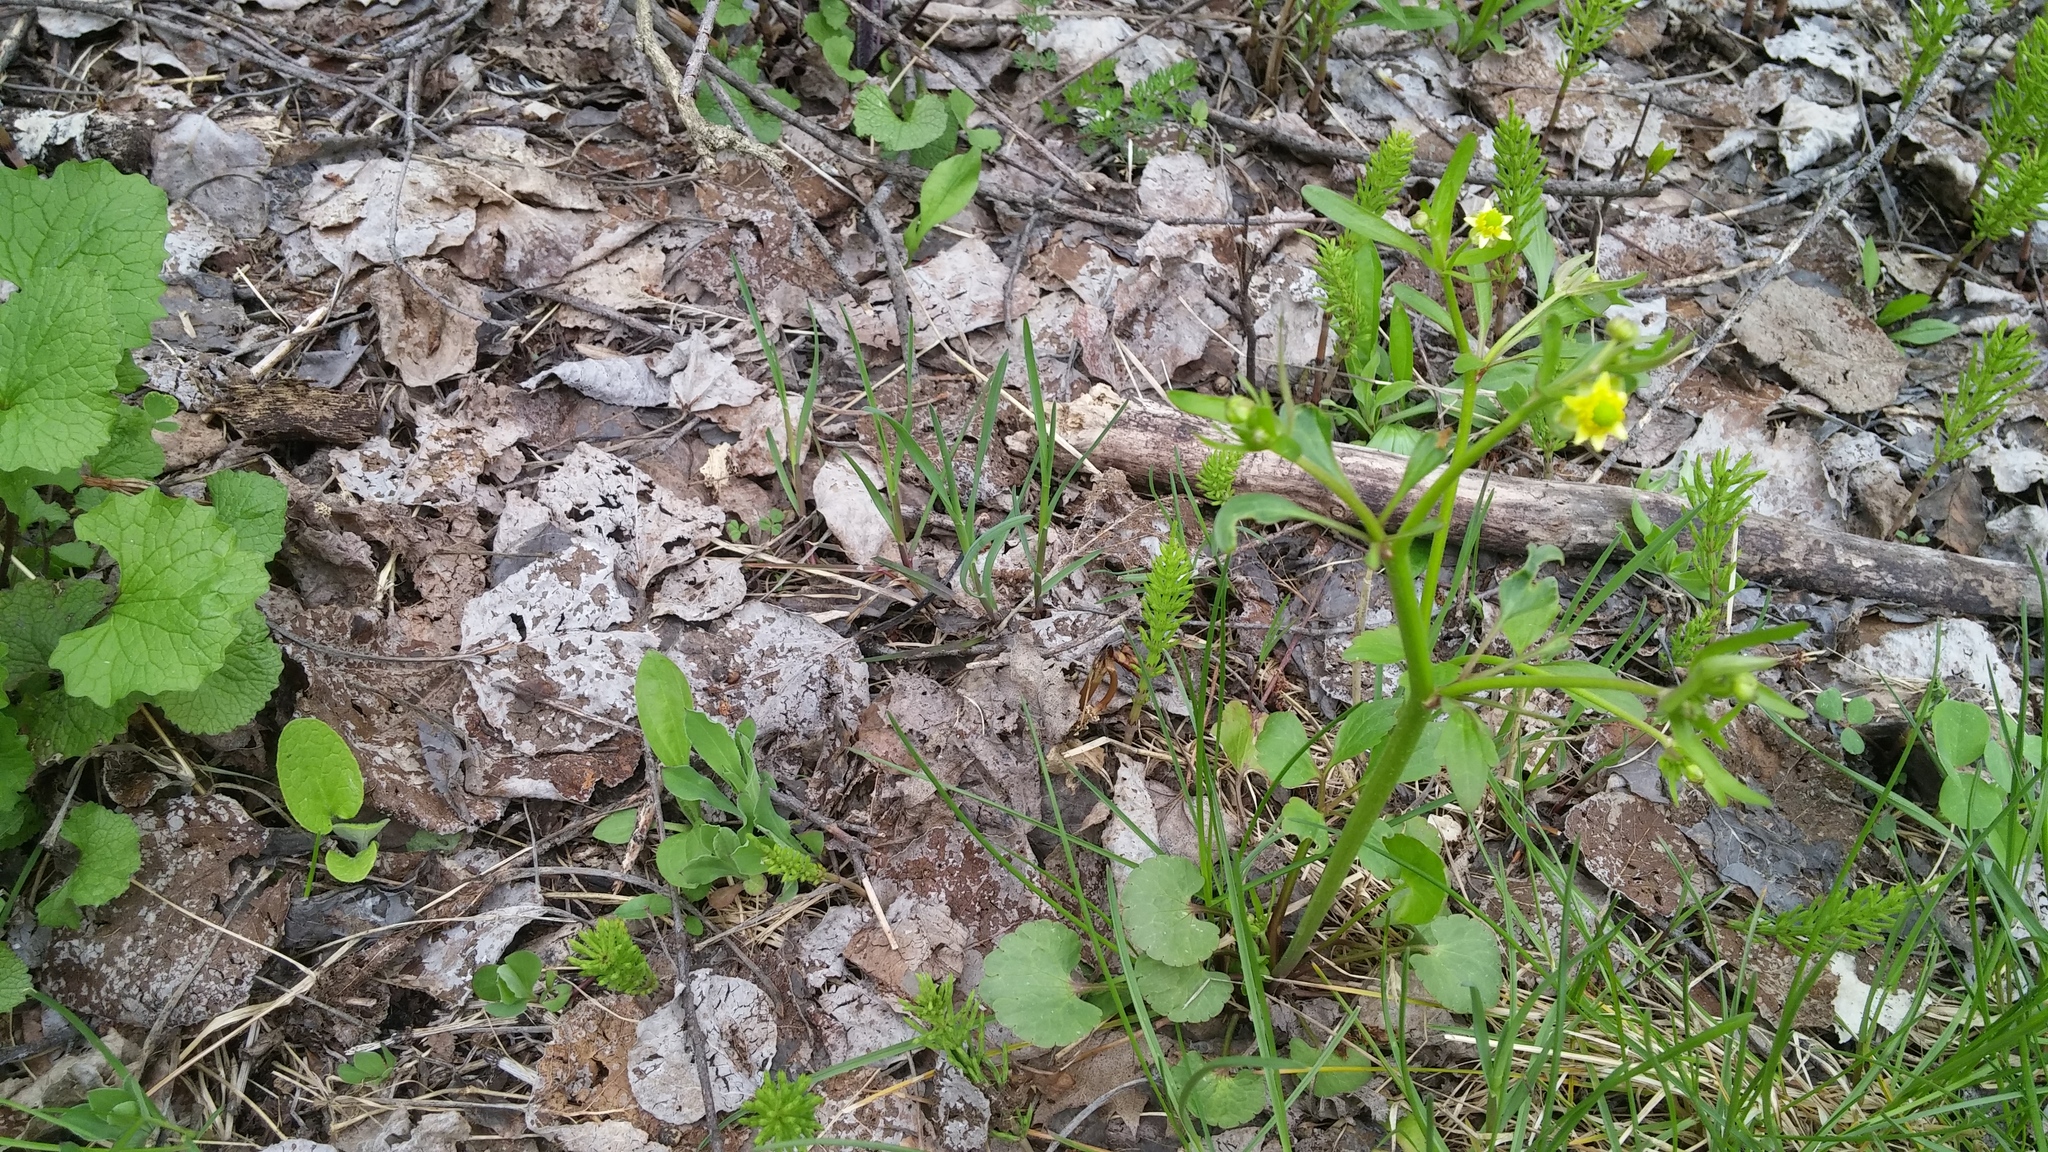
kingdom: Plantae
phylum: Tracheophyta
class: Magnoliopsida
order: Ranunculales
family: Ranunculaceae
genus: Ranunculus
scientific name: Ranunculus abortivus
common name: Early wood buttercup
